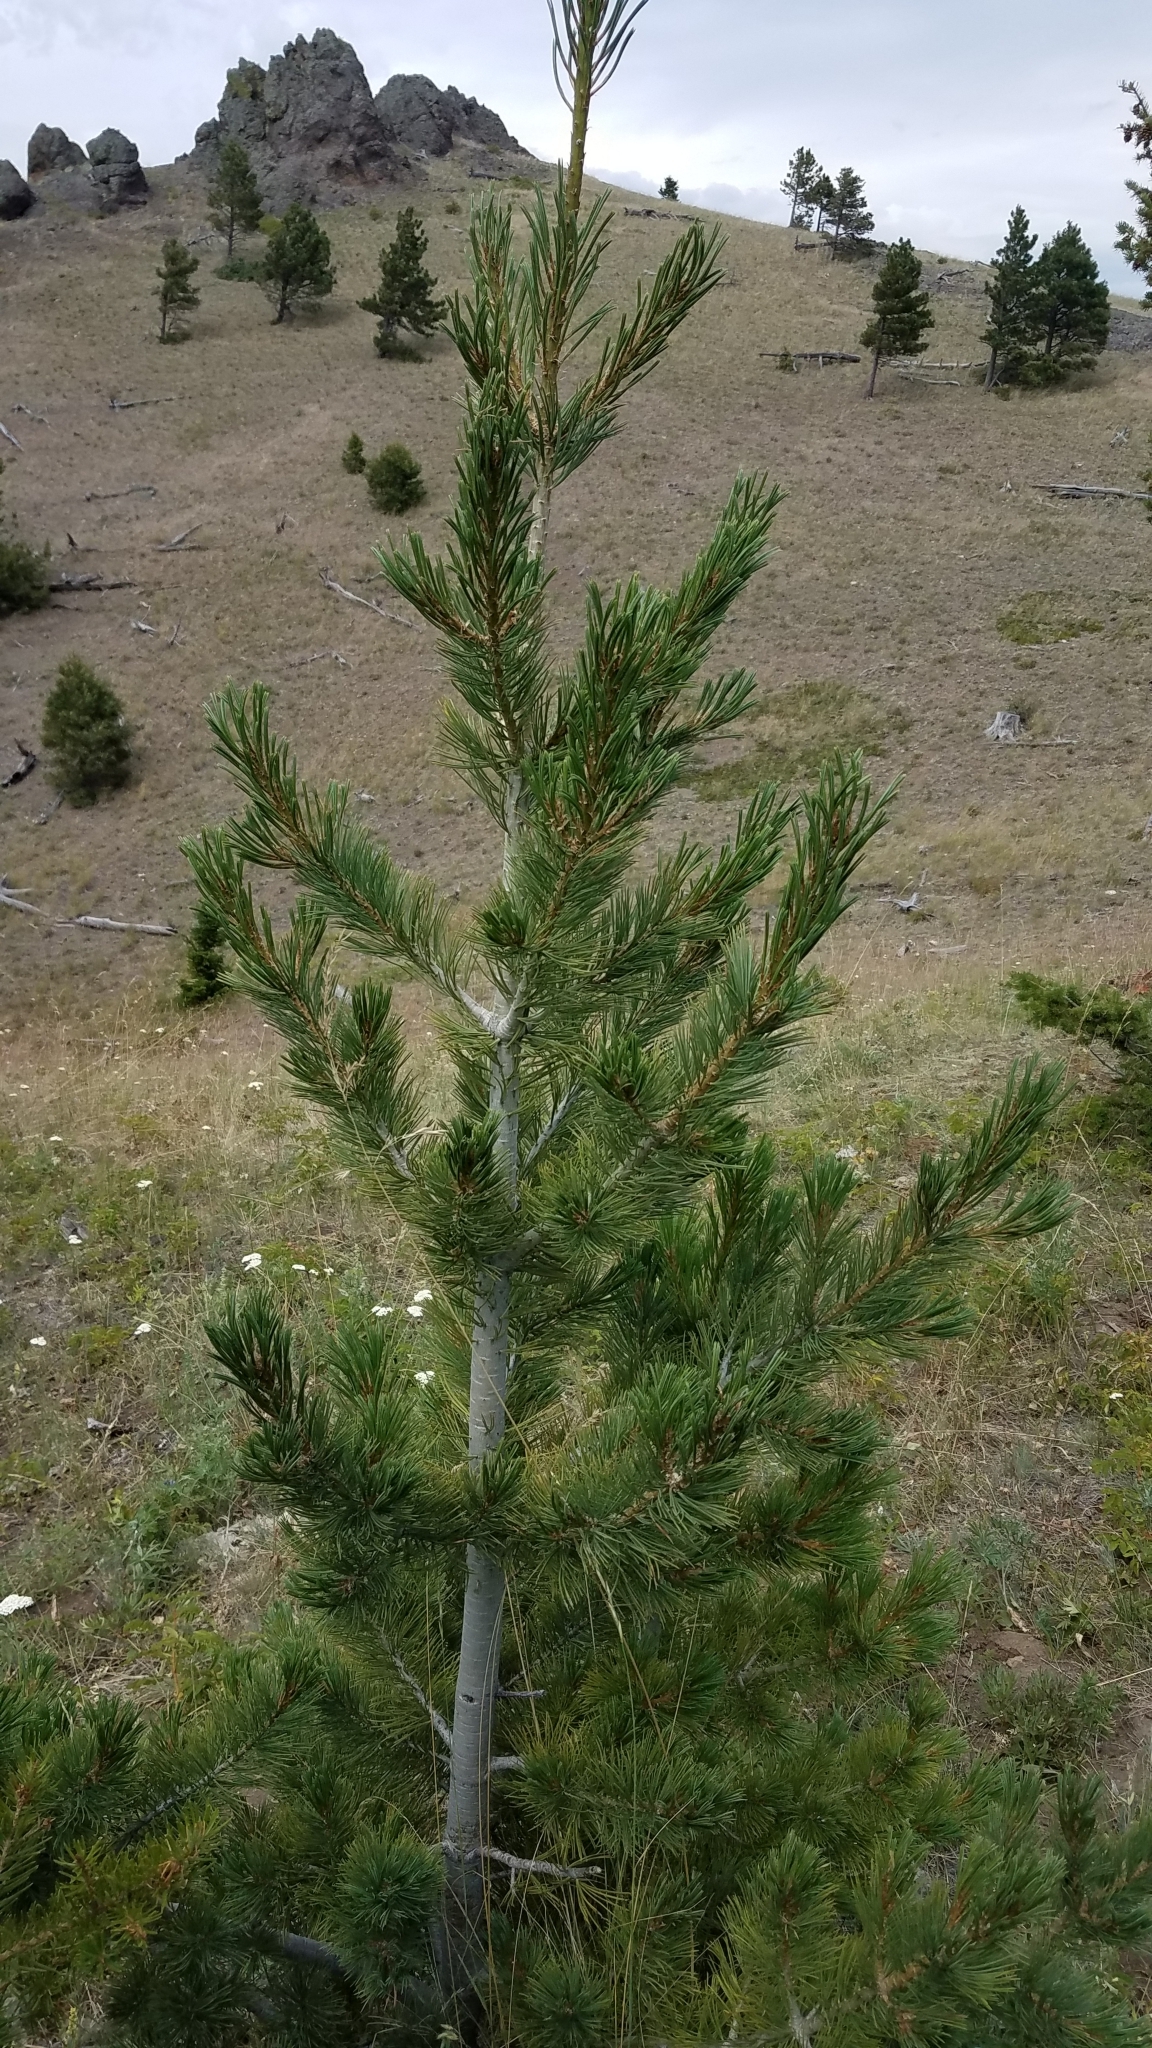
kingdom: Plantae
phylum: Tracheophyta
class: Pinopsida
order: Pinales
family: Pinaceae
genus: Pinus
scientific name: Pinus flexilis
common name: Limber pine
